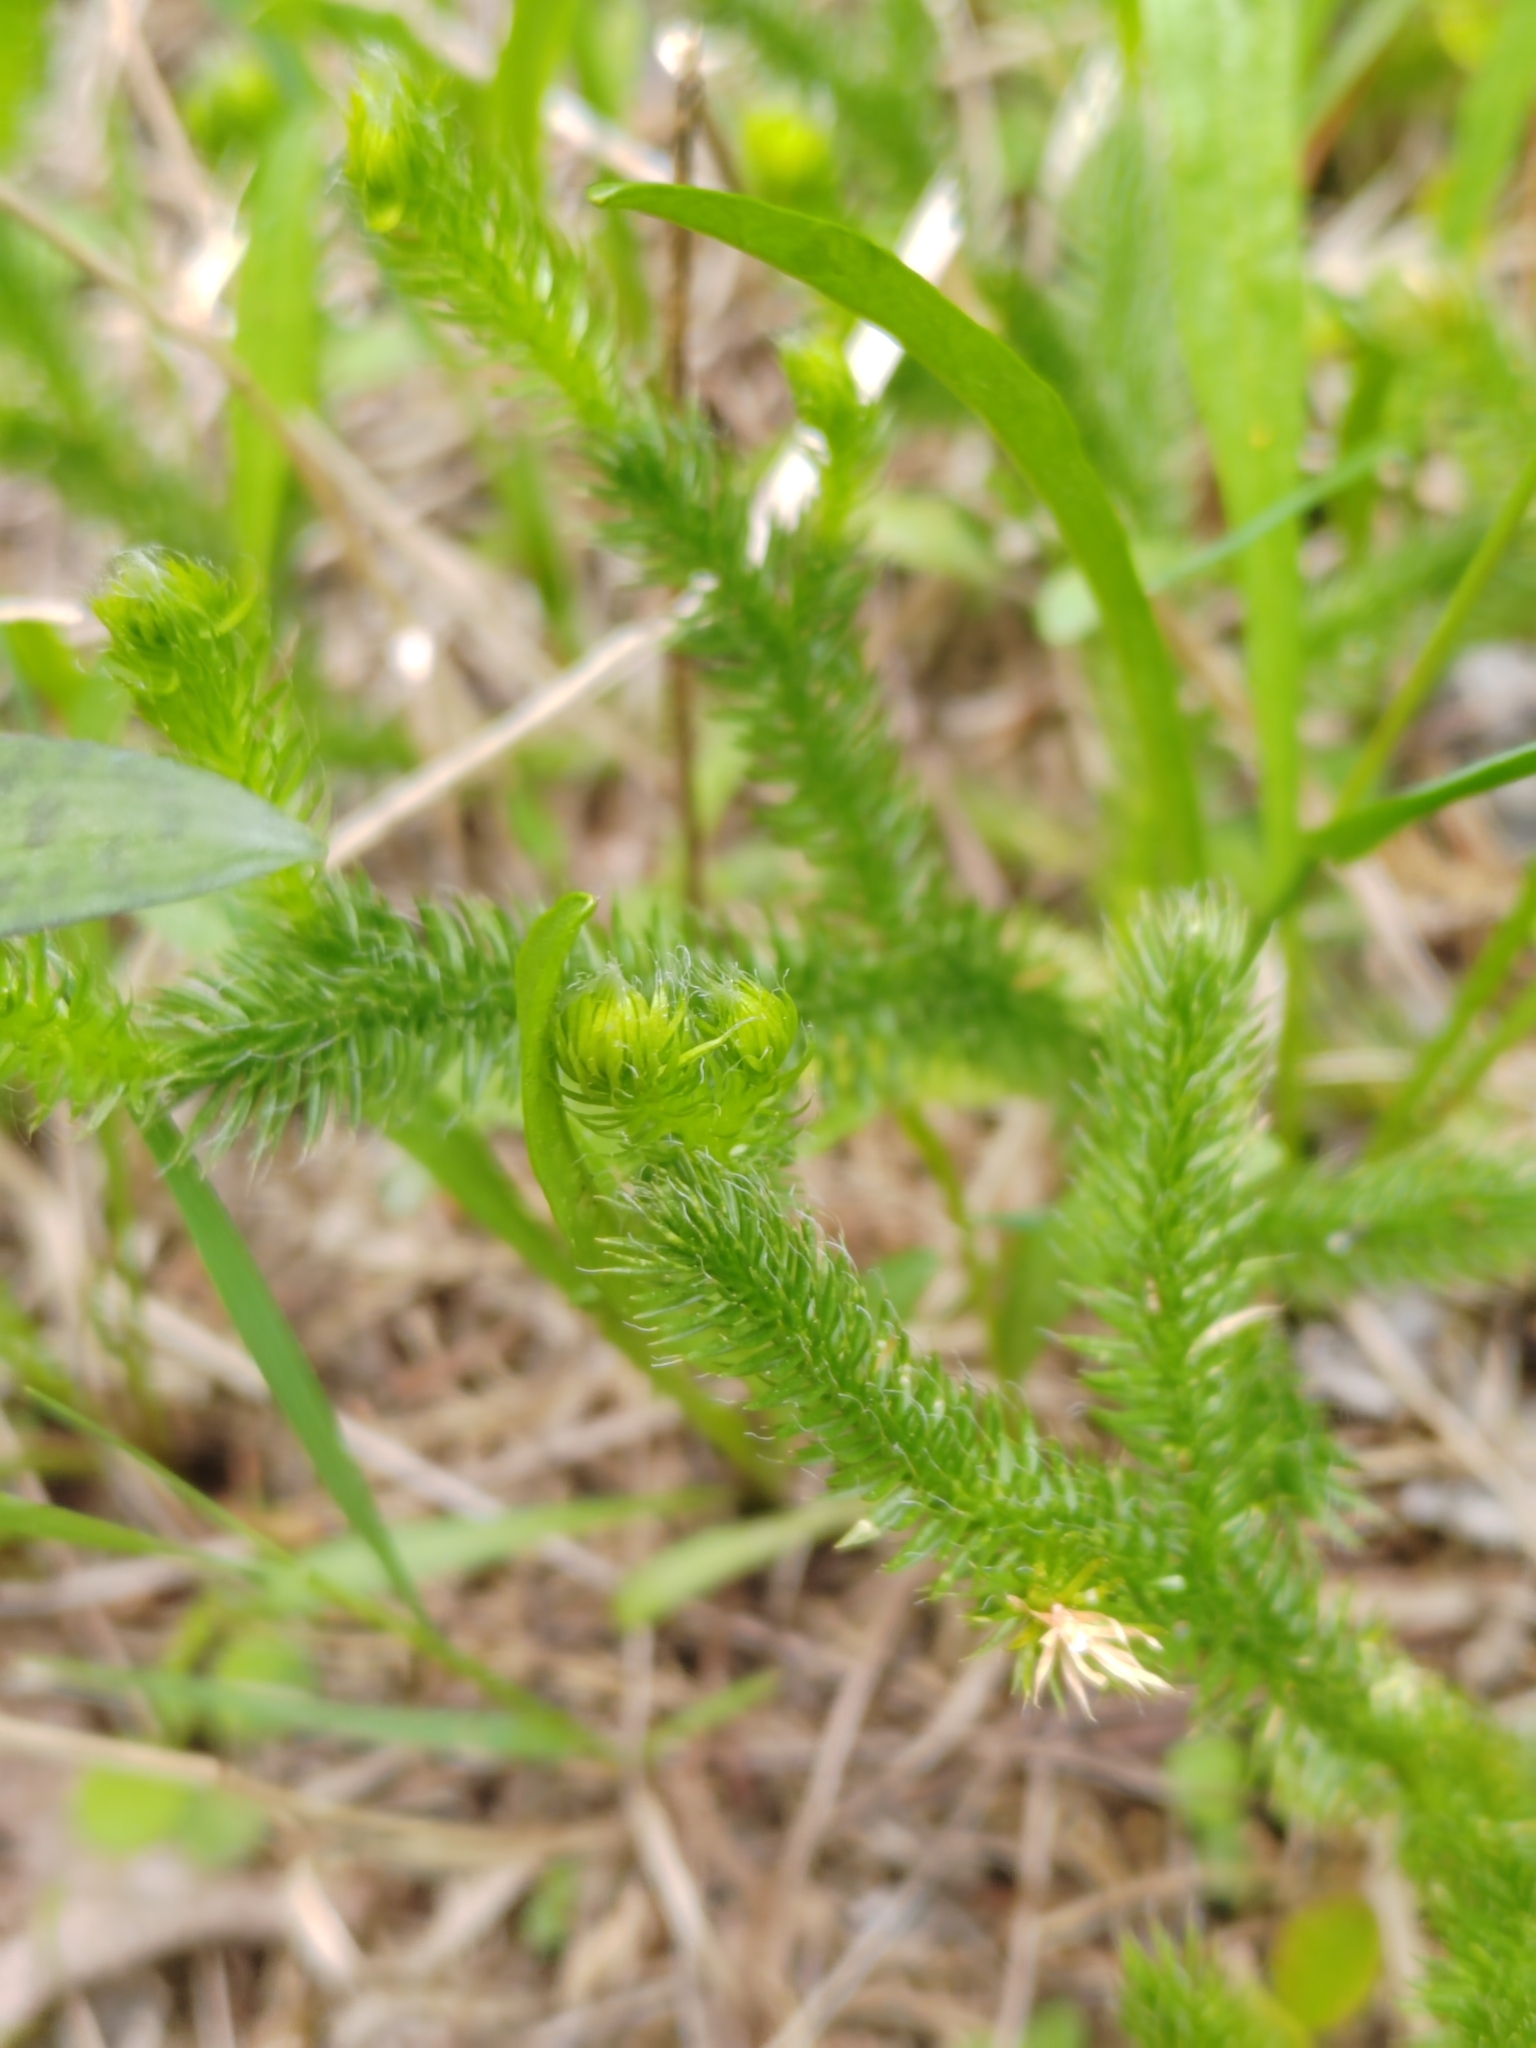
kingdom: Plantae
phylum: Tracheophyta
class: Lycopodiopsida
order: Lycopodiales
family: Lycopodiaceae
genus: Lycopodium
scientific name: Lycopodium clavatum
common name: Stag's-horn clubmoss
